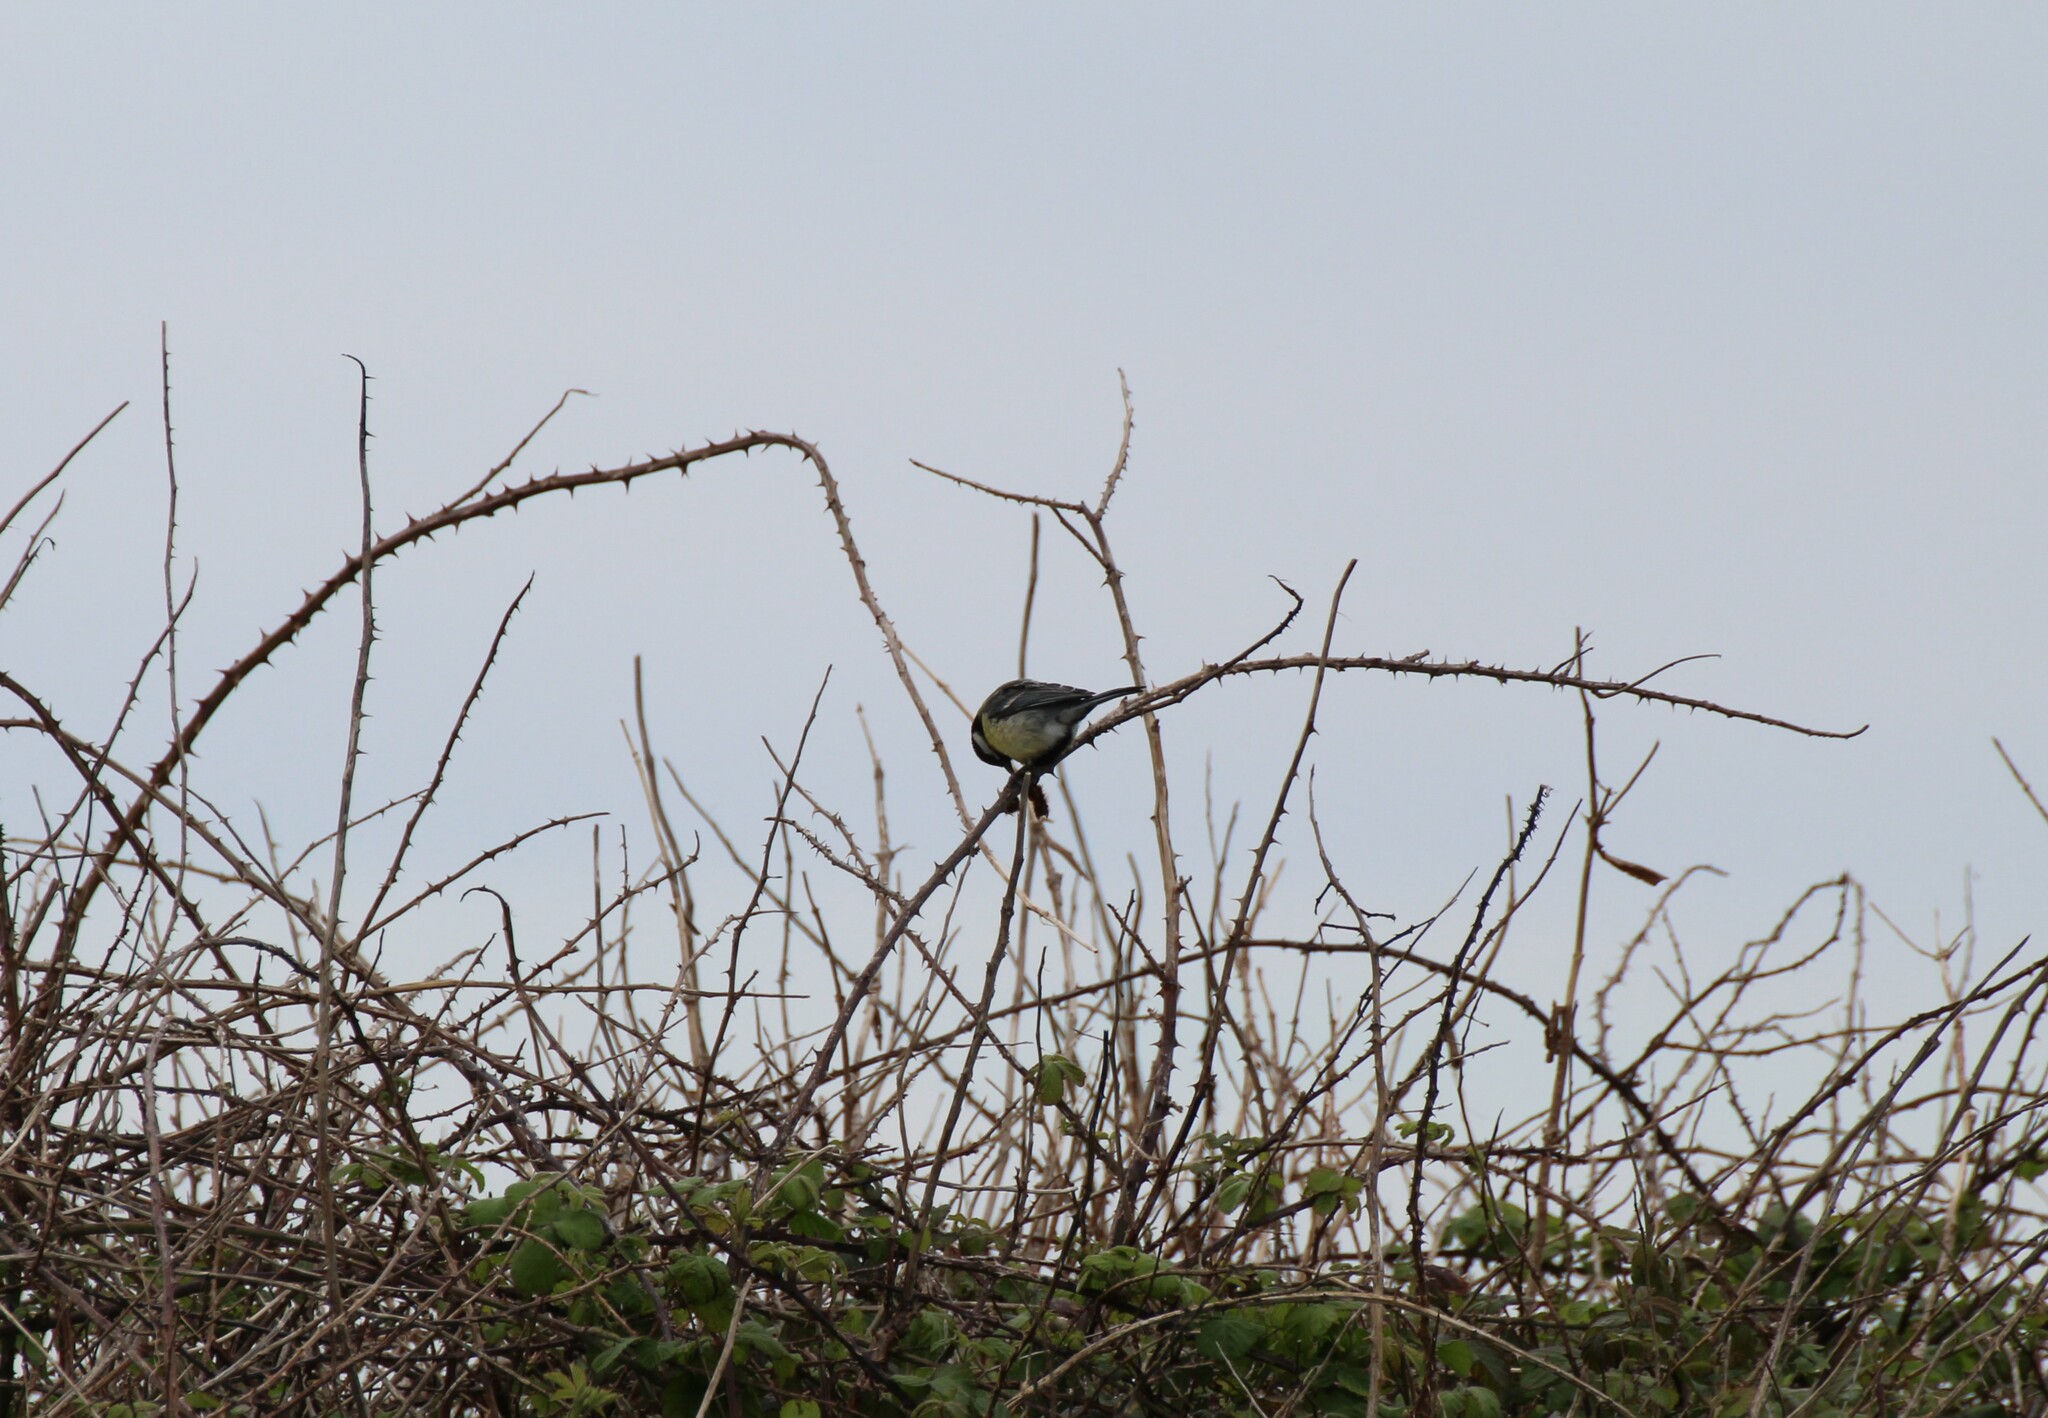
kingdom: Animalia
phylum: Chordata
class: Aves
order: Passeriformes
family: Paridae
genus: Parus
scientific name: Parus major
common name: Great tit
